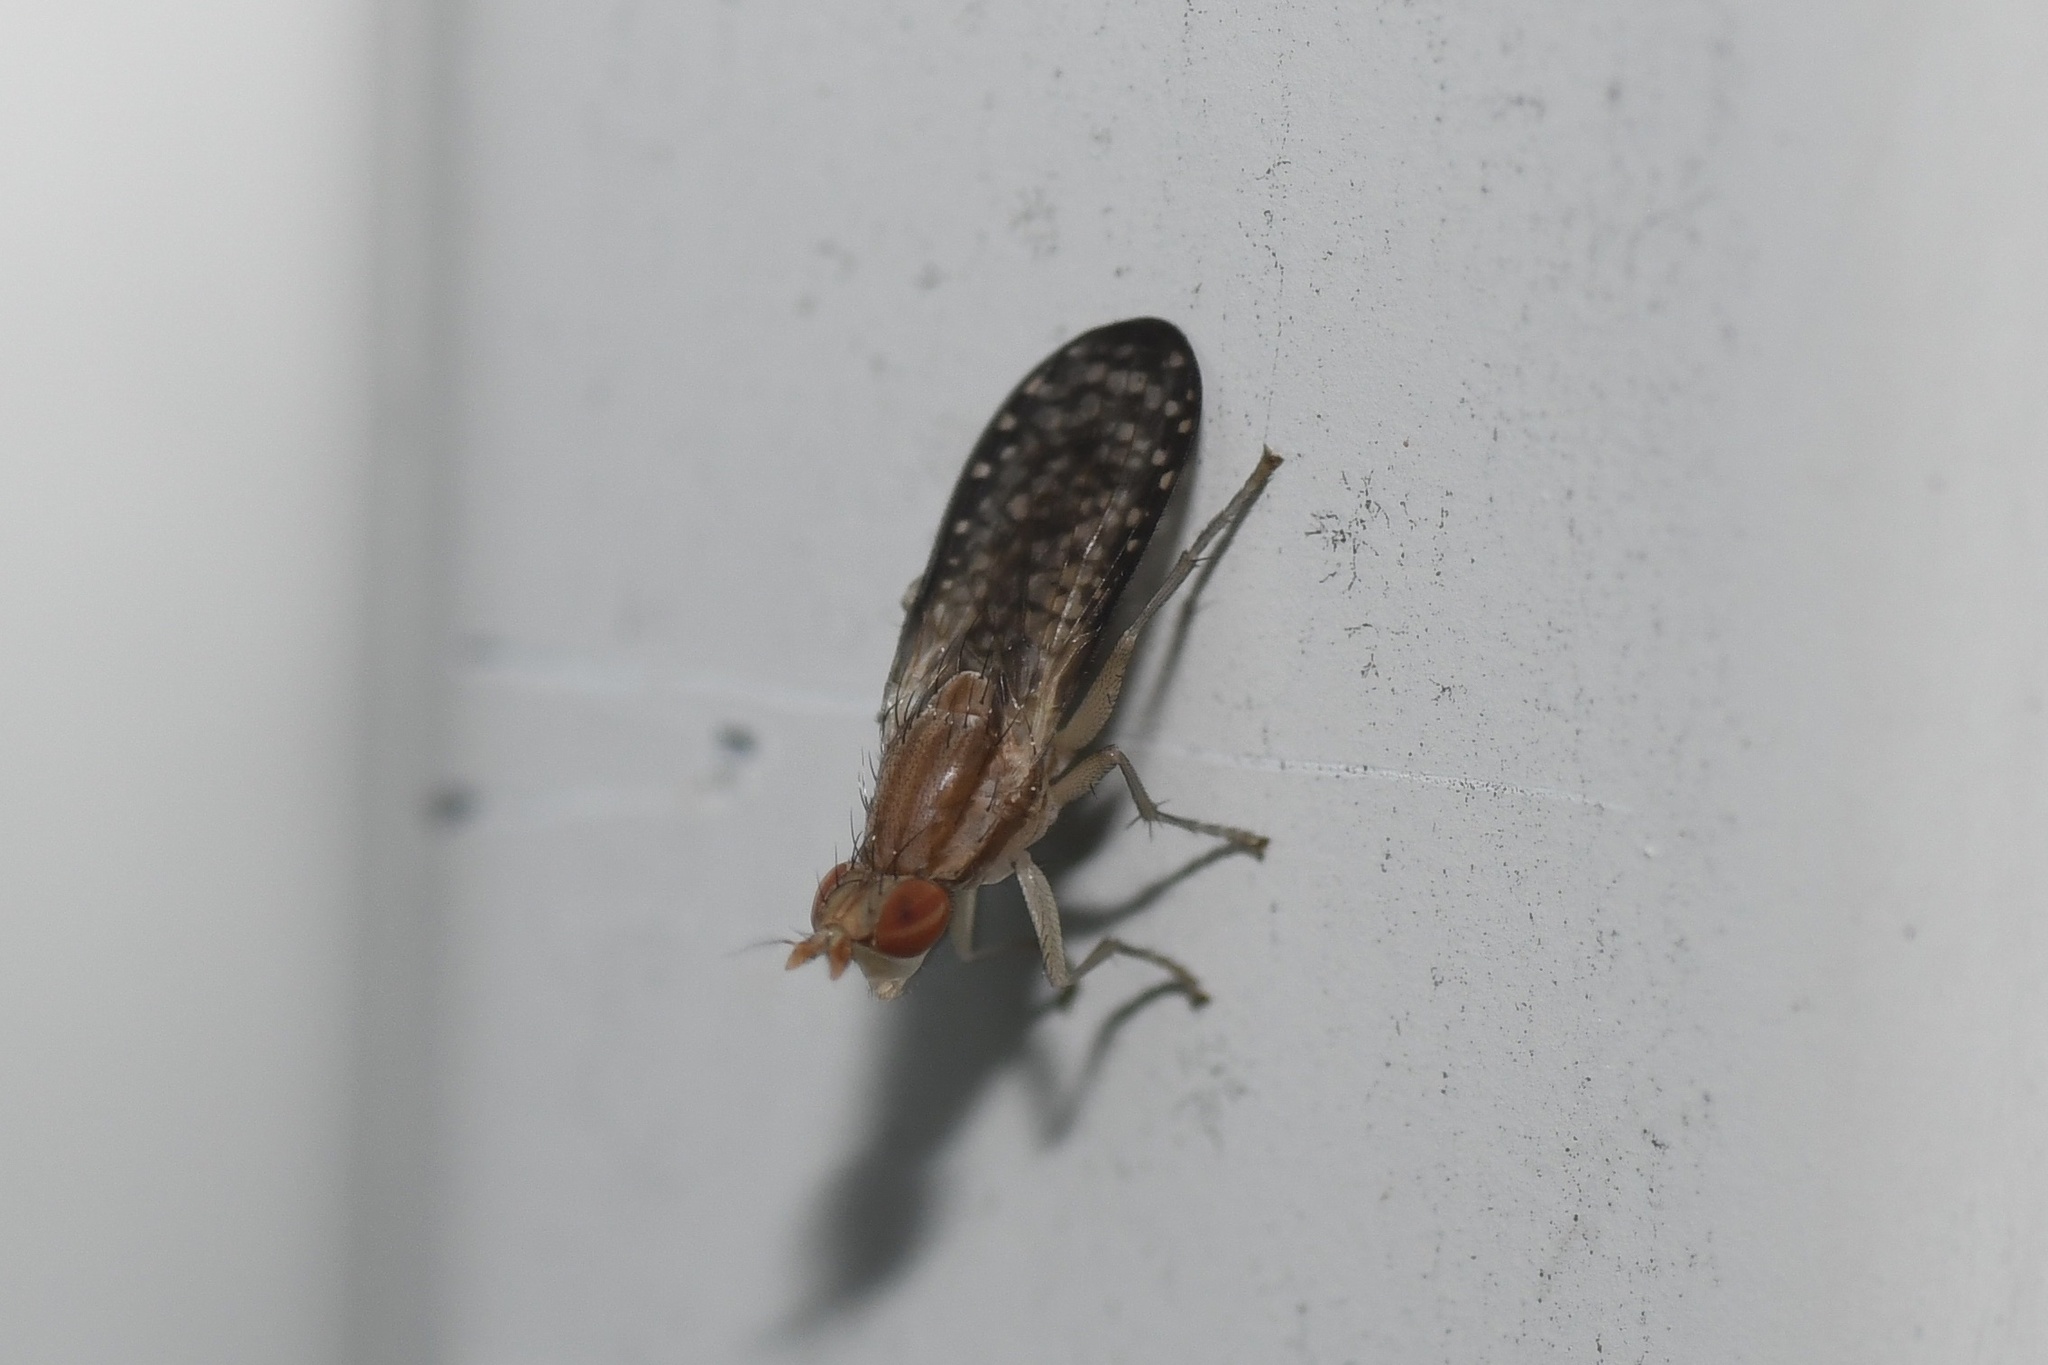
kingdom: Animalia
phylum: Arthropoda
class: Insecta
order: Diptera
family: Sciomyzidae
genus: Trypetoptera
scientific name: Trypetoptera canadensis
